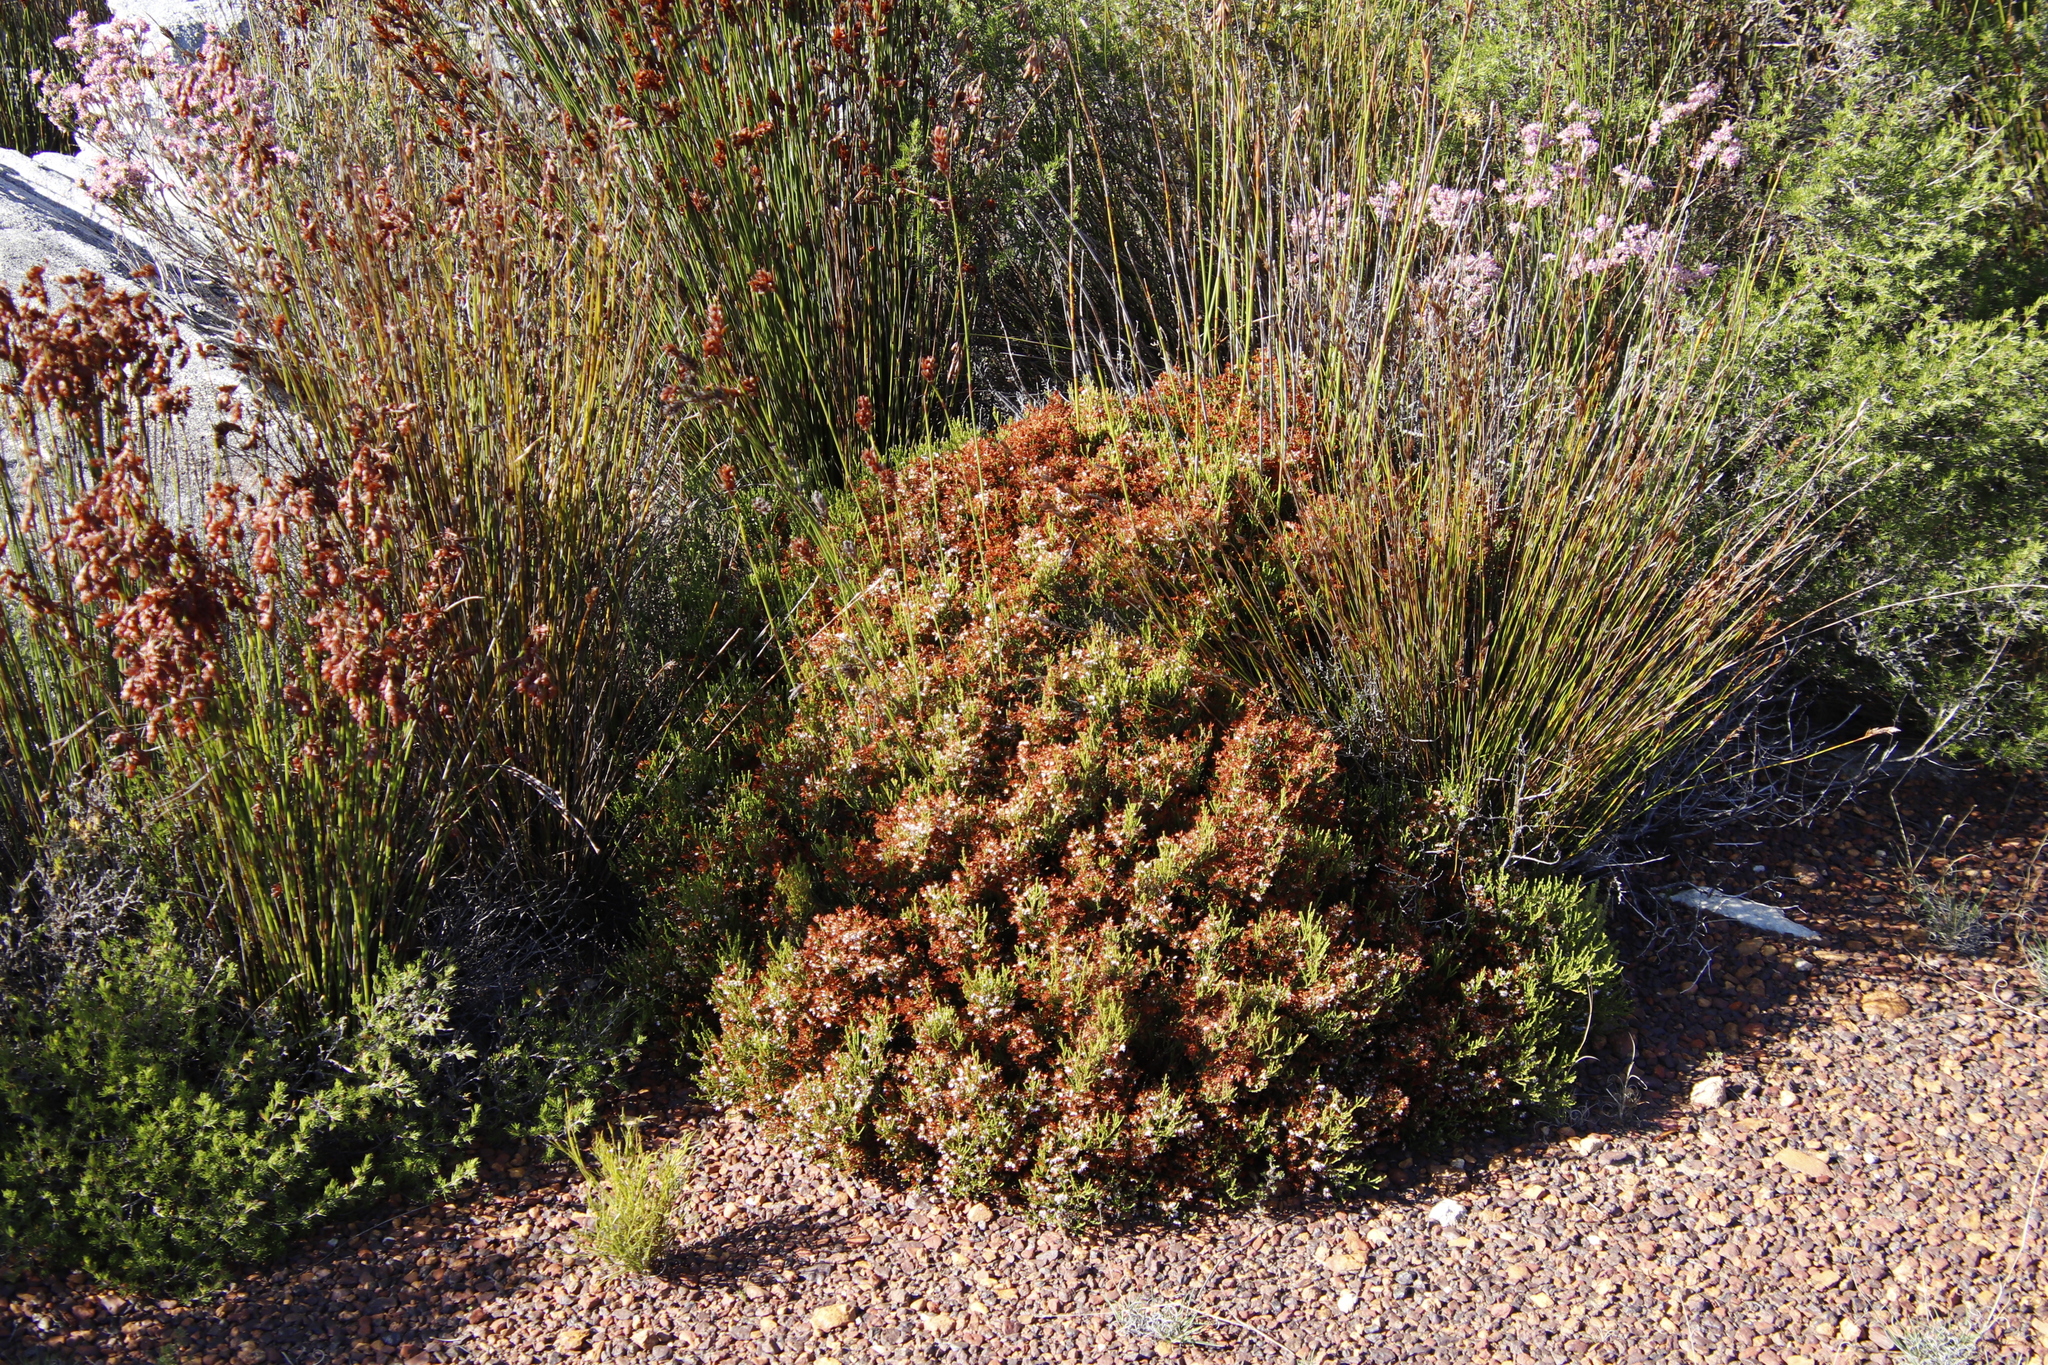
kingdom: Plantae
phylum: Tracheophyta
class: Magnoliopsida
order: Ericales
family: Ericaceae
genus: Erica
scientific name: Erica equisetifolia
